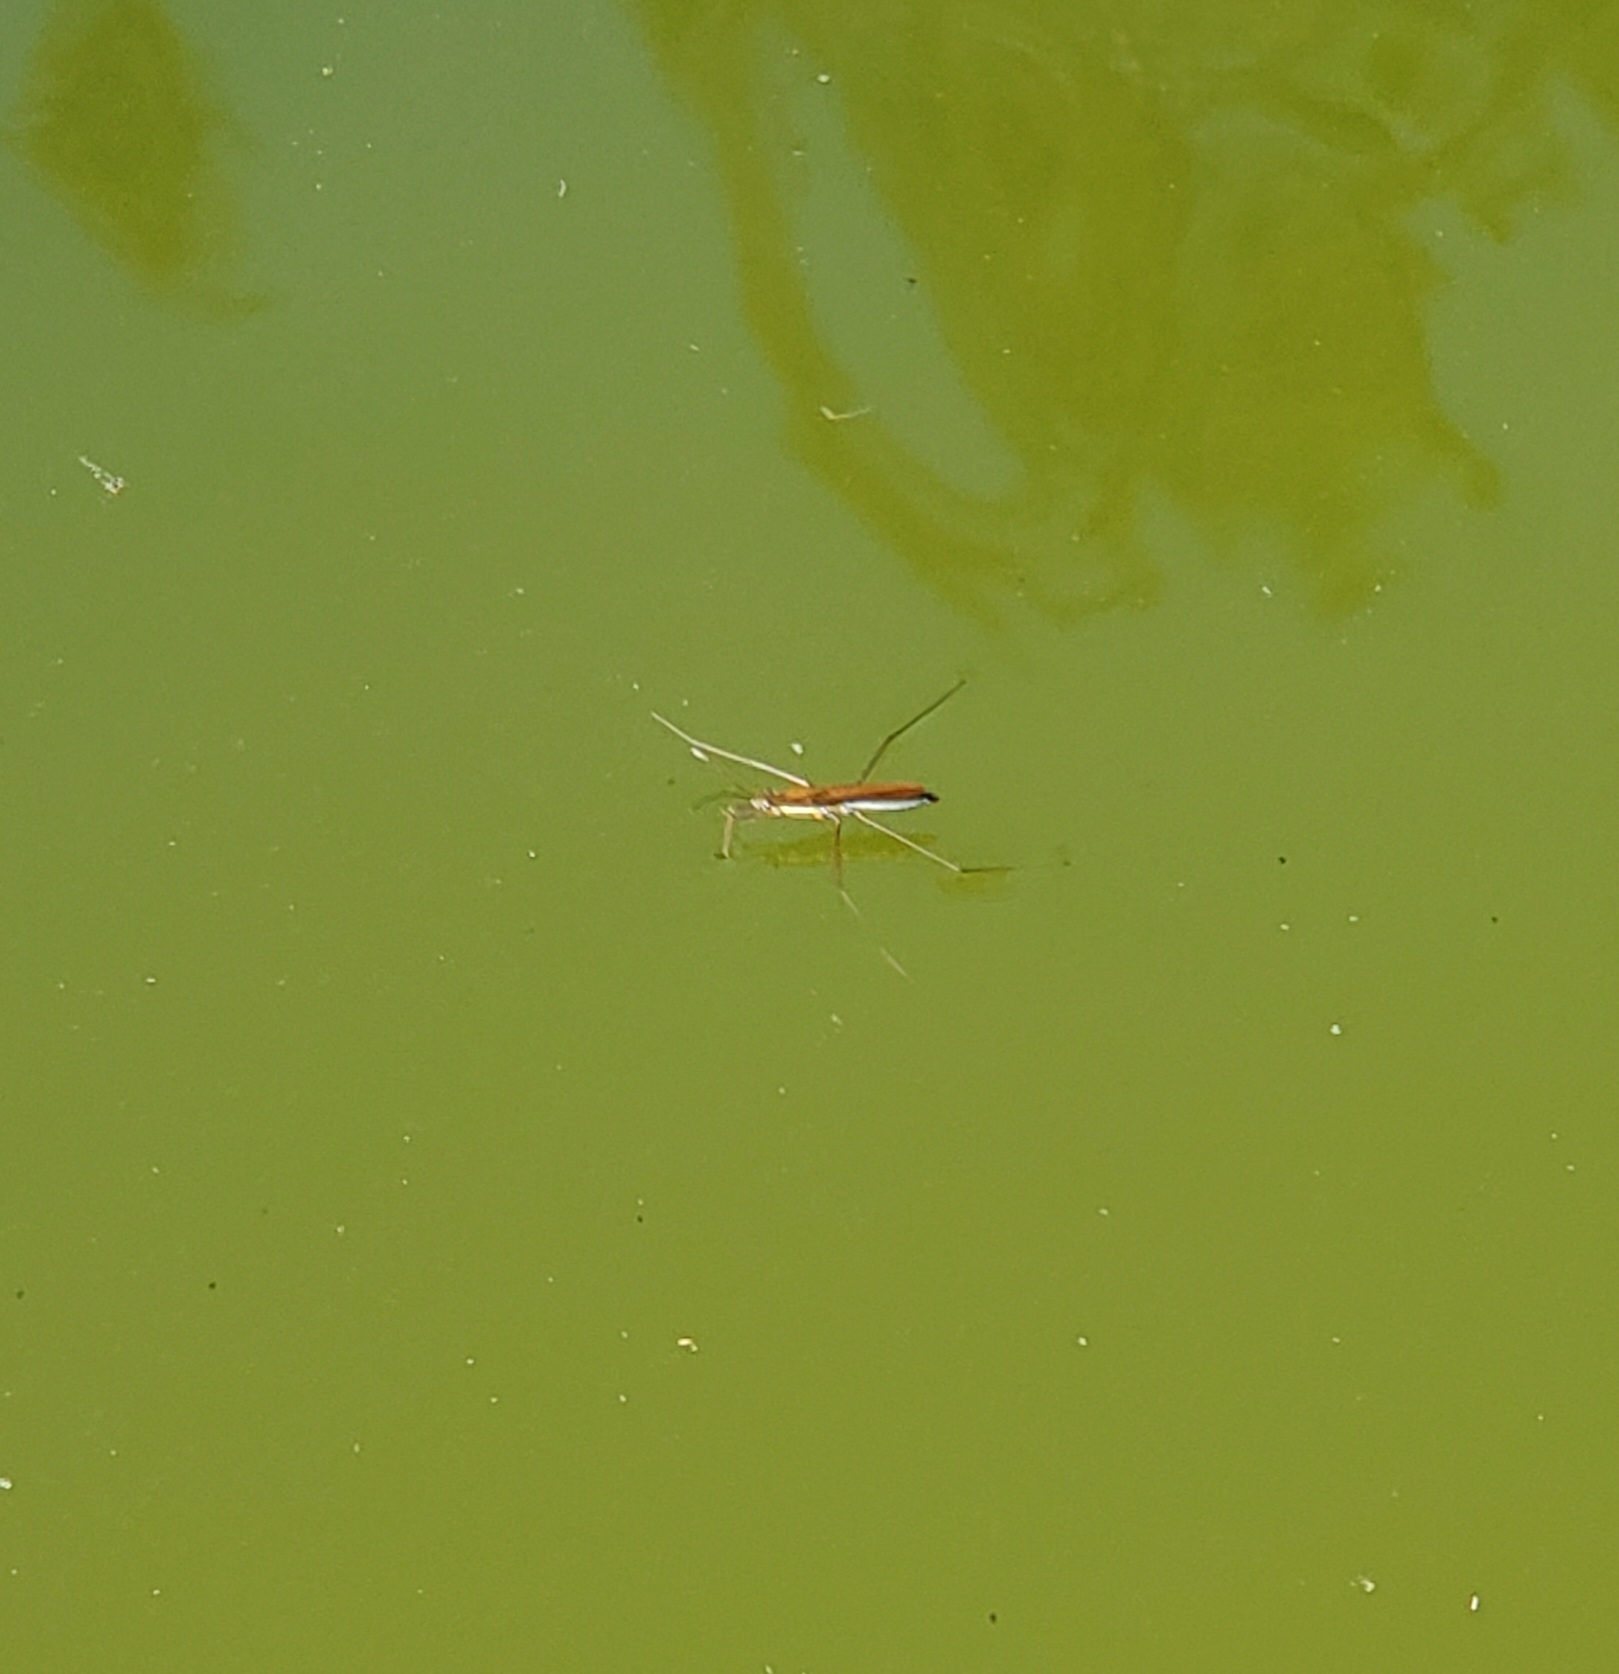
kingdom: Animalia
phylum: Arthropoda
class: Insecta
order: Hemiptera
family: Gerridae
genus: Limnoporus
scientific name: Limnoporus dissortis
